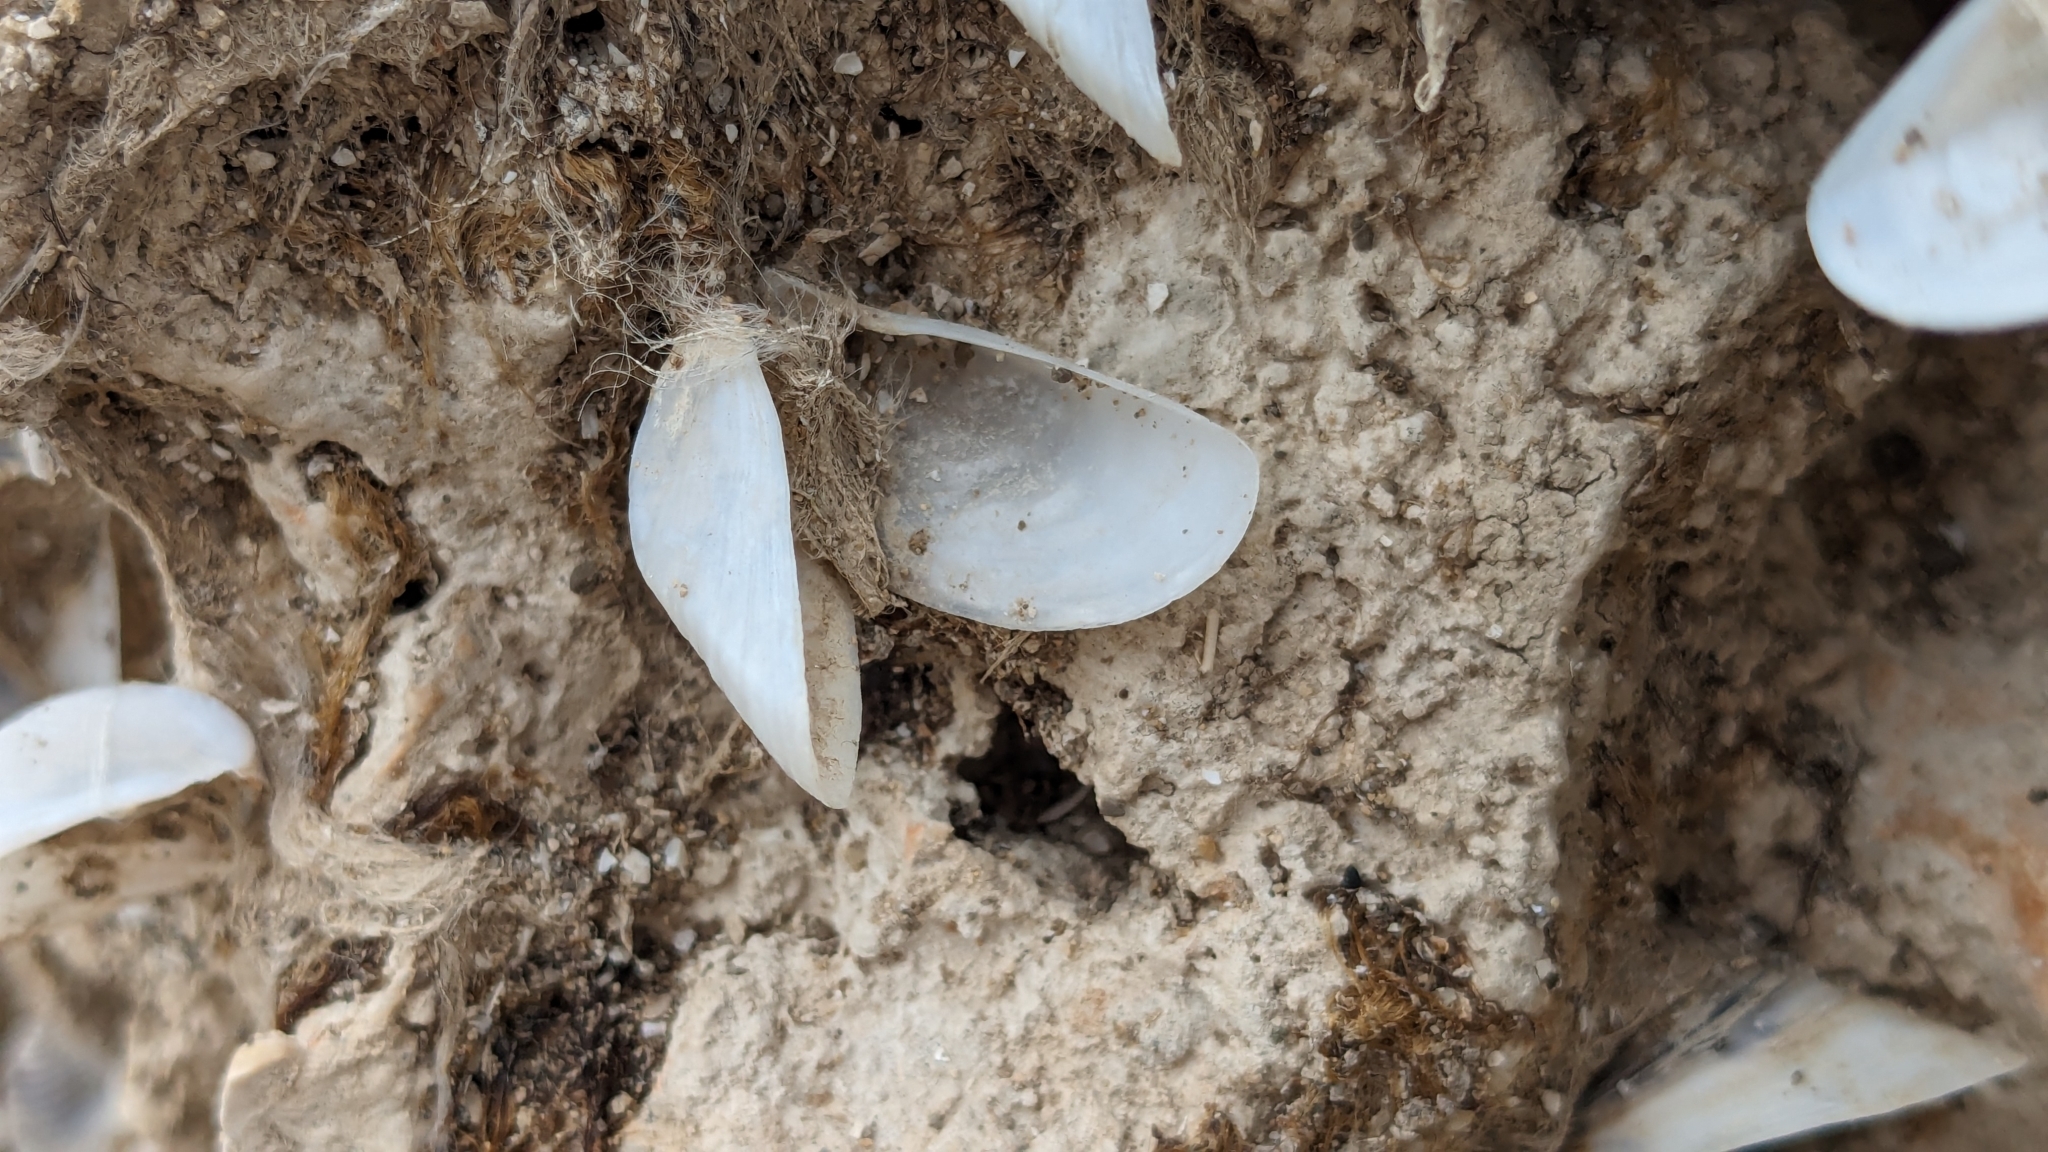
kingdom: Animalia
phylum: Mollusca
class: Bivalvia
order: Myida
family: Dreissenidae
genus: Dreissena
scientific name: Dreissena polymorpha
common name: Zebra mussel
